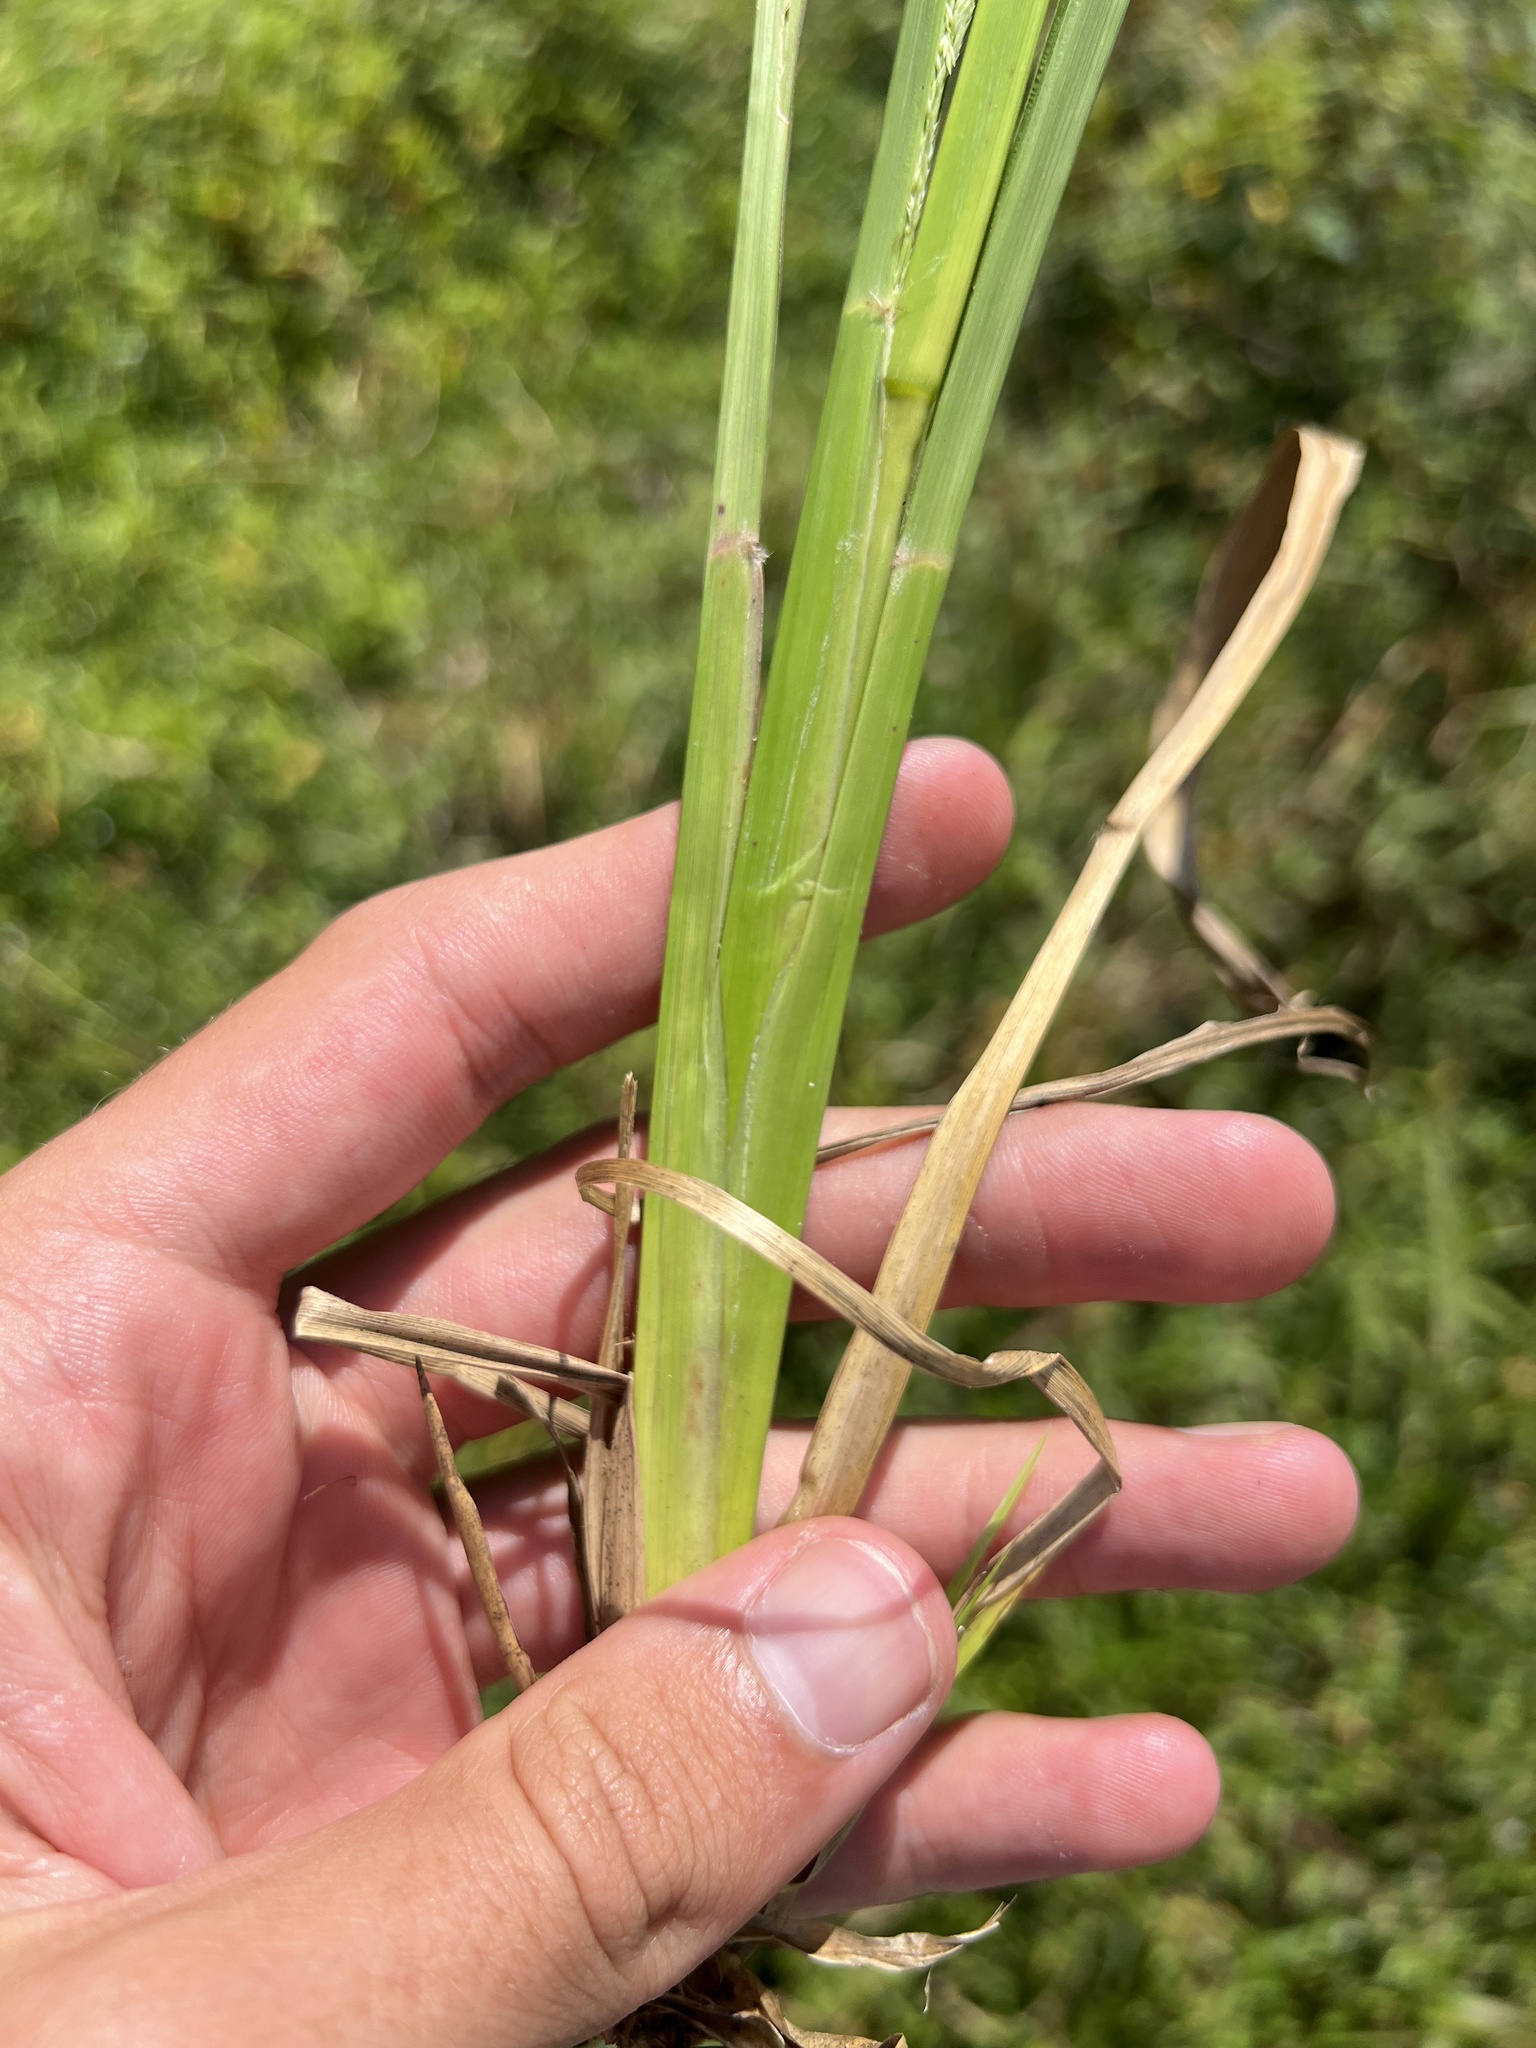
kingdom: Plantae
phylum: Tracheophyta
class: Liliopsida
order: Poales
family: Poaceae
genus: Coleataenia
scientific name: Coleataenia rigidula
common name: Redtop panicgrass
